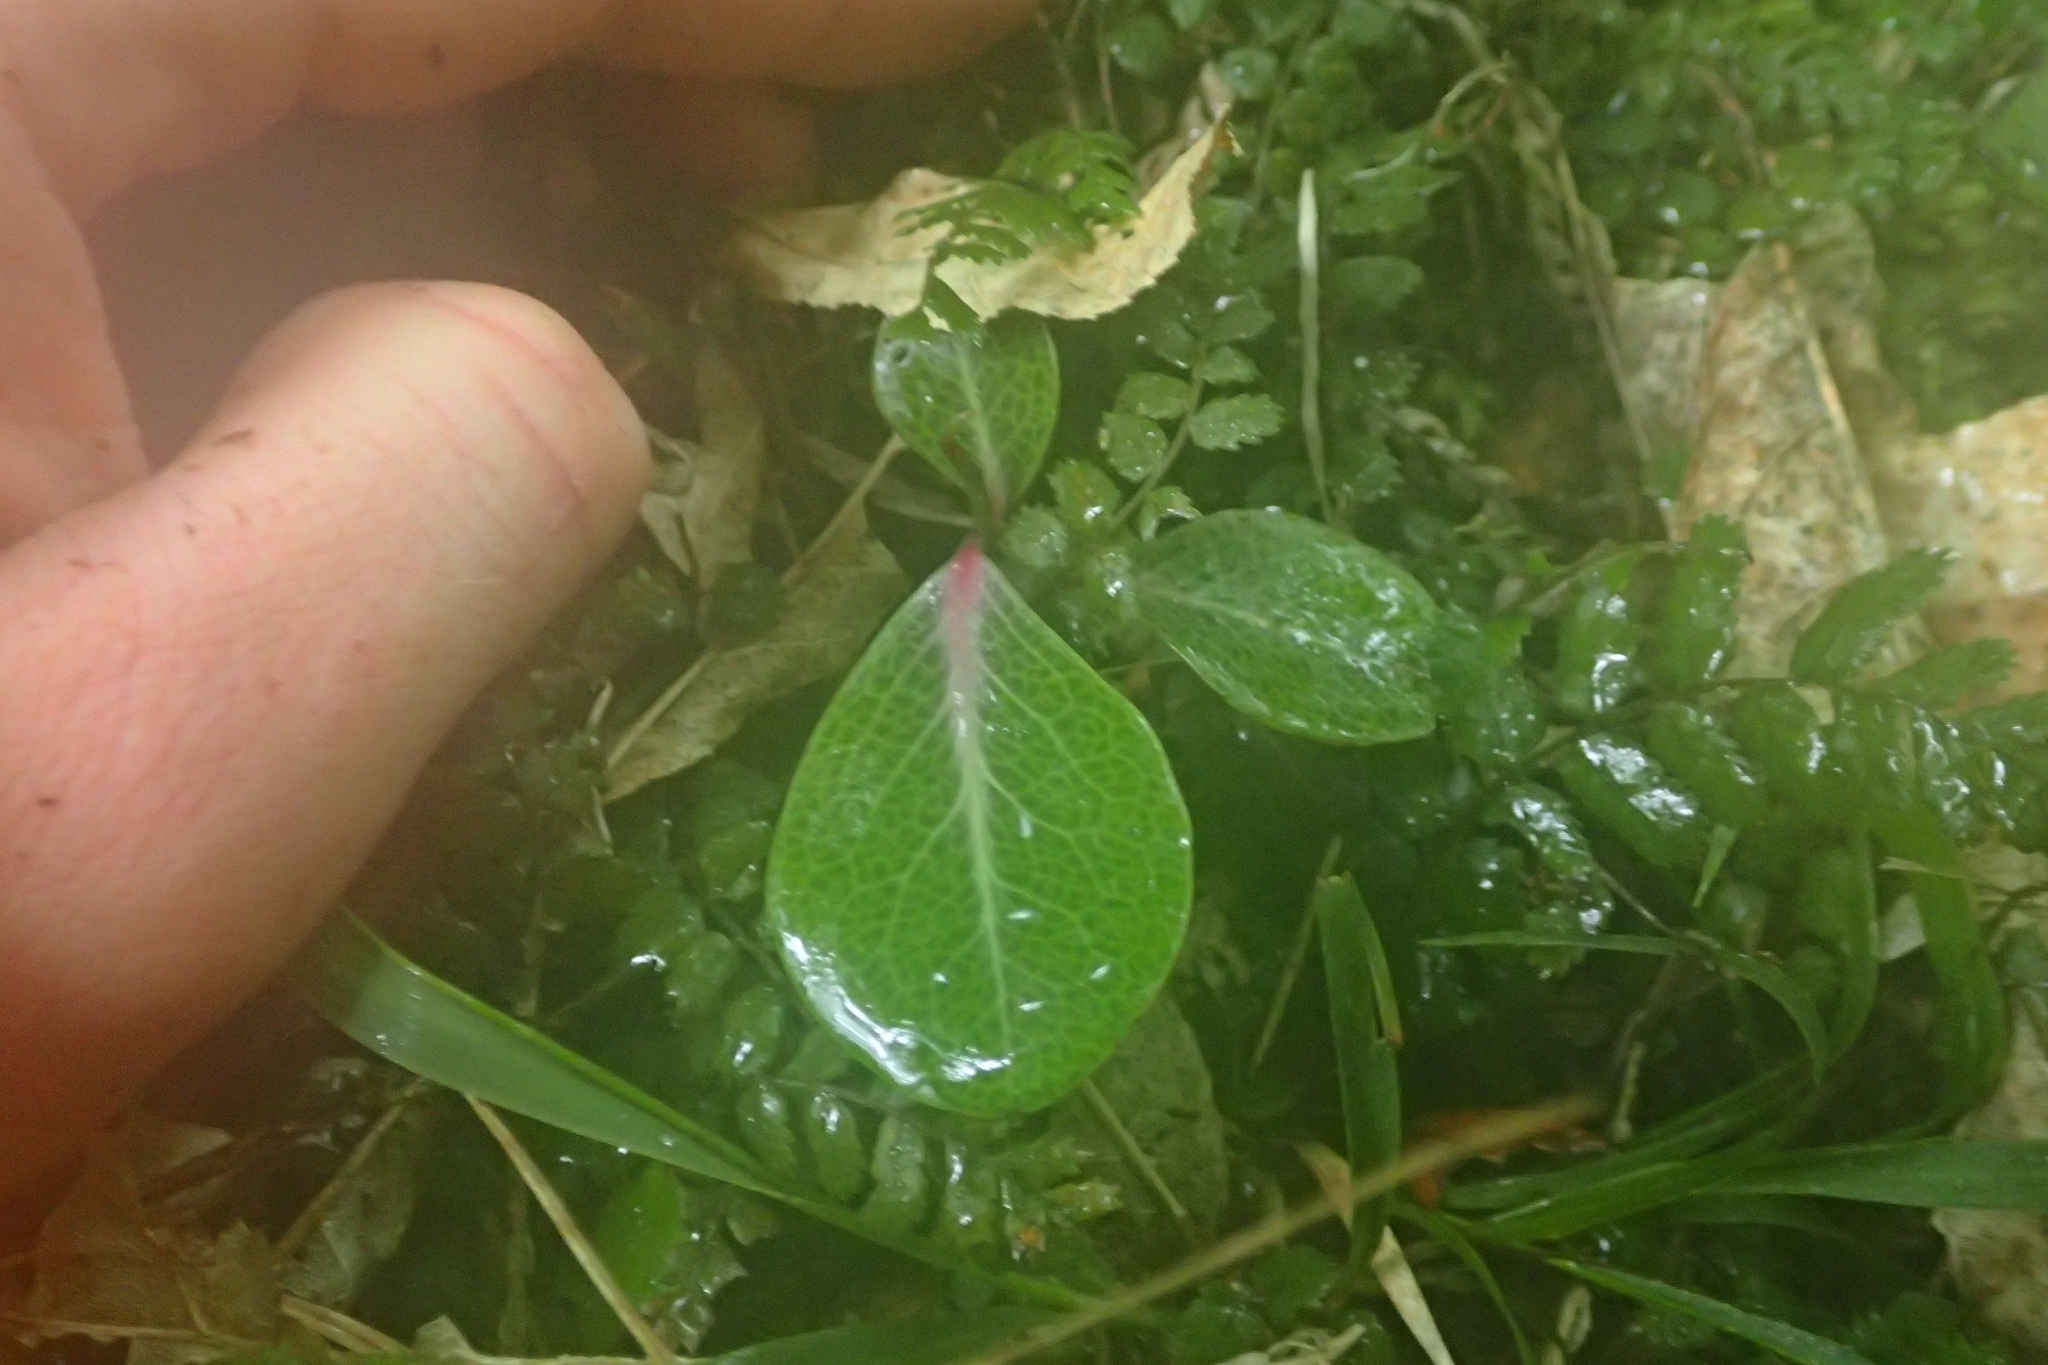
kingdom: Plantae
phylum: Tracheophyta
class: Magnoliopsida
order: Canellales
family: Winteraceae
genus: Pseudowintera
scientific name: Pseudowintera axillaris
